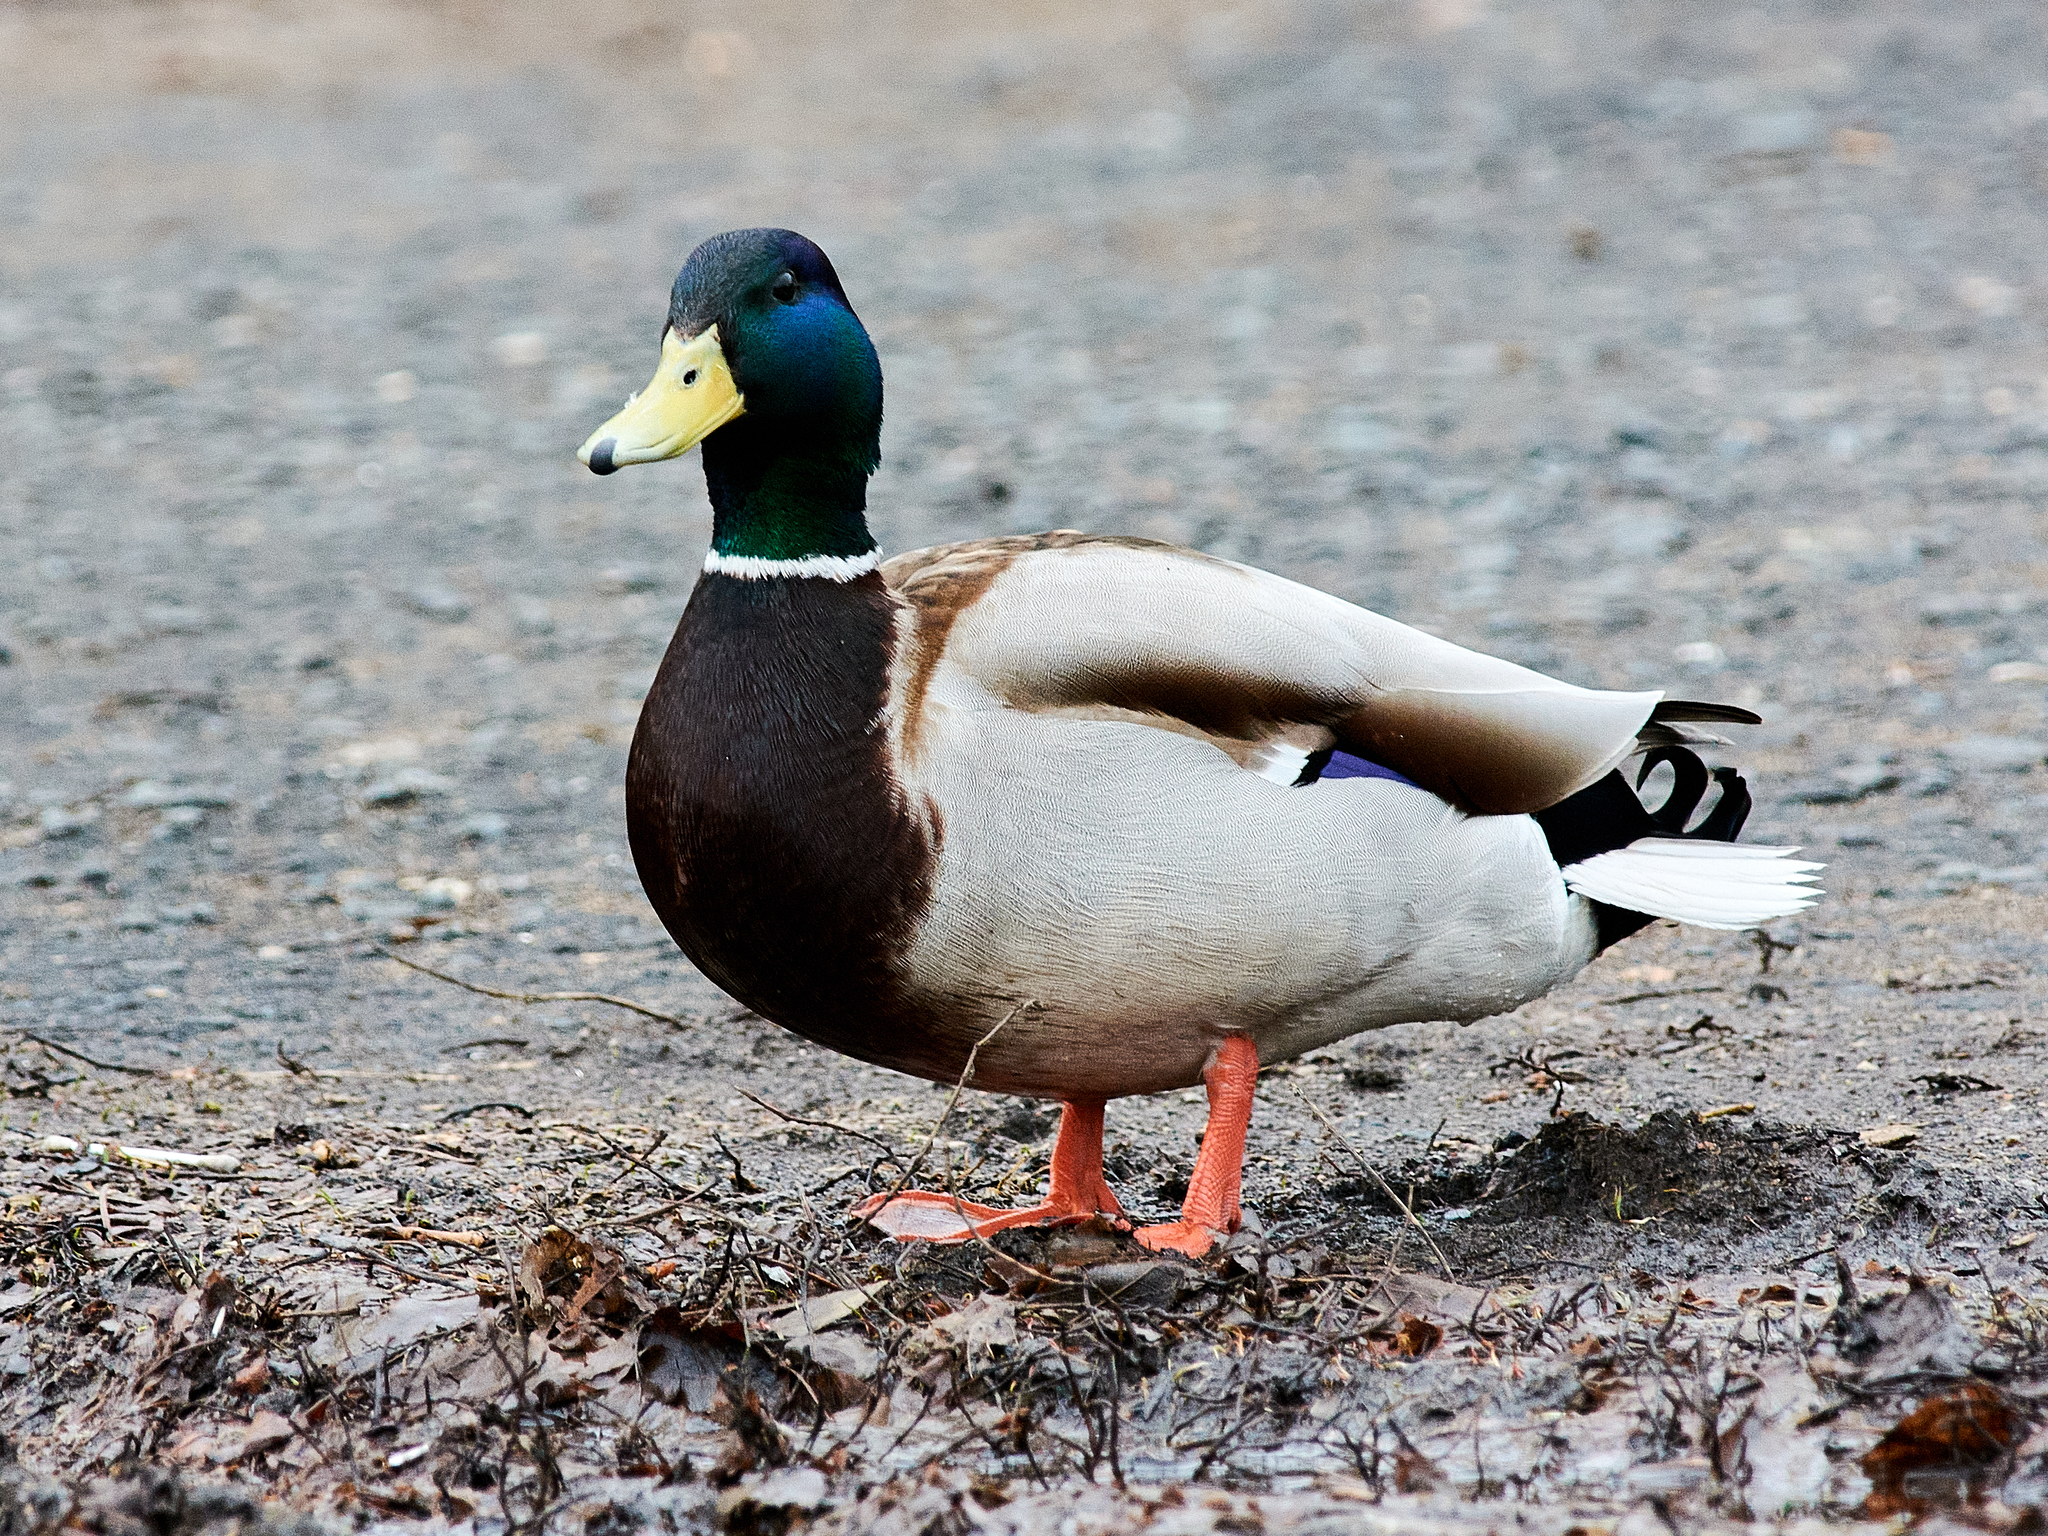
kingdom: Animalia
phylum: Chordata
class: Aves
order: Anseriformes
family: Anatidae
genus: Anas
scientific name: Anas platyrhynchos
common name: Mallard
